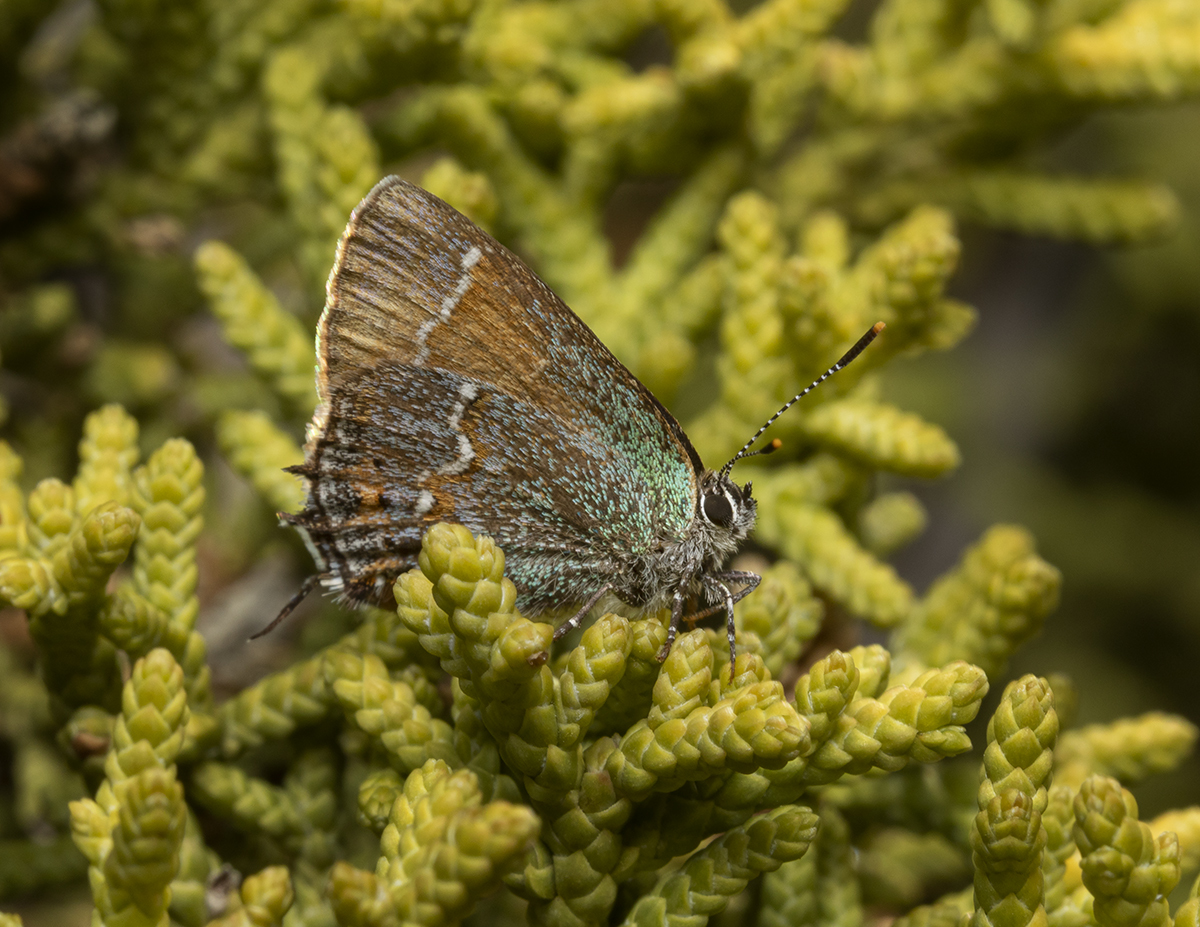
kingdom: Animalia
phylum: Arthropoda
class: Insecta
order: Lepidoptera
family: Lycaenidae
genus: Mitoura
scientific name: Mitoura gryneus
